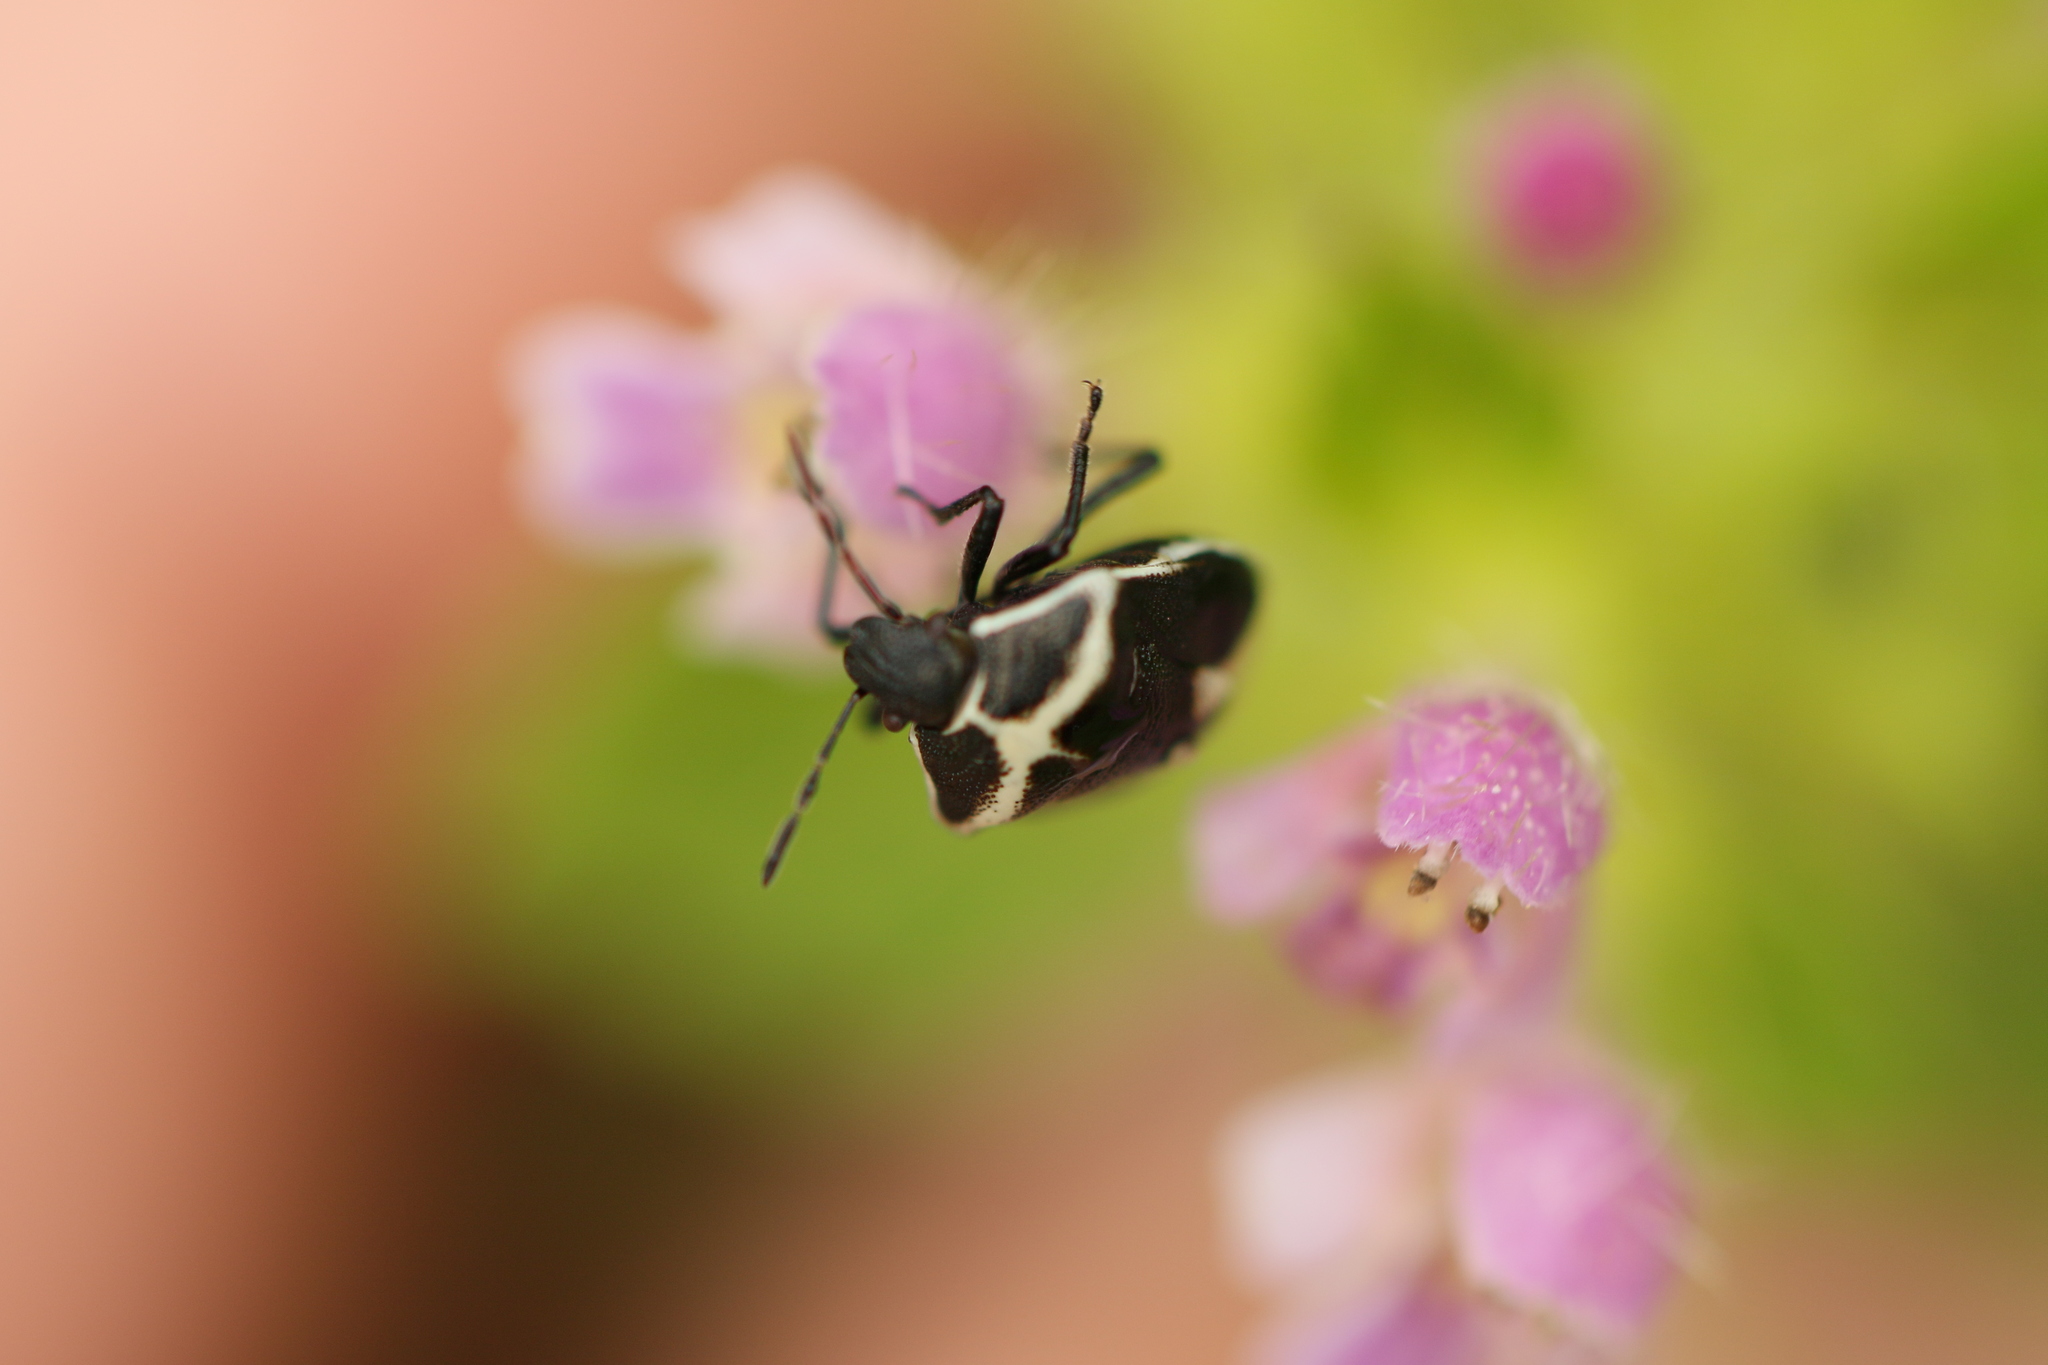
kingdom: Animalia
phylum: Arthropoda
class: Insecta
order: Hemiptera
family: Pentatomidae
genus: Cosmopepla
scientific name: Cosmopepla lintneriana
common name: Twice-stabbed stink bug
